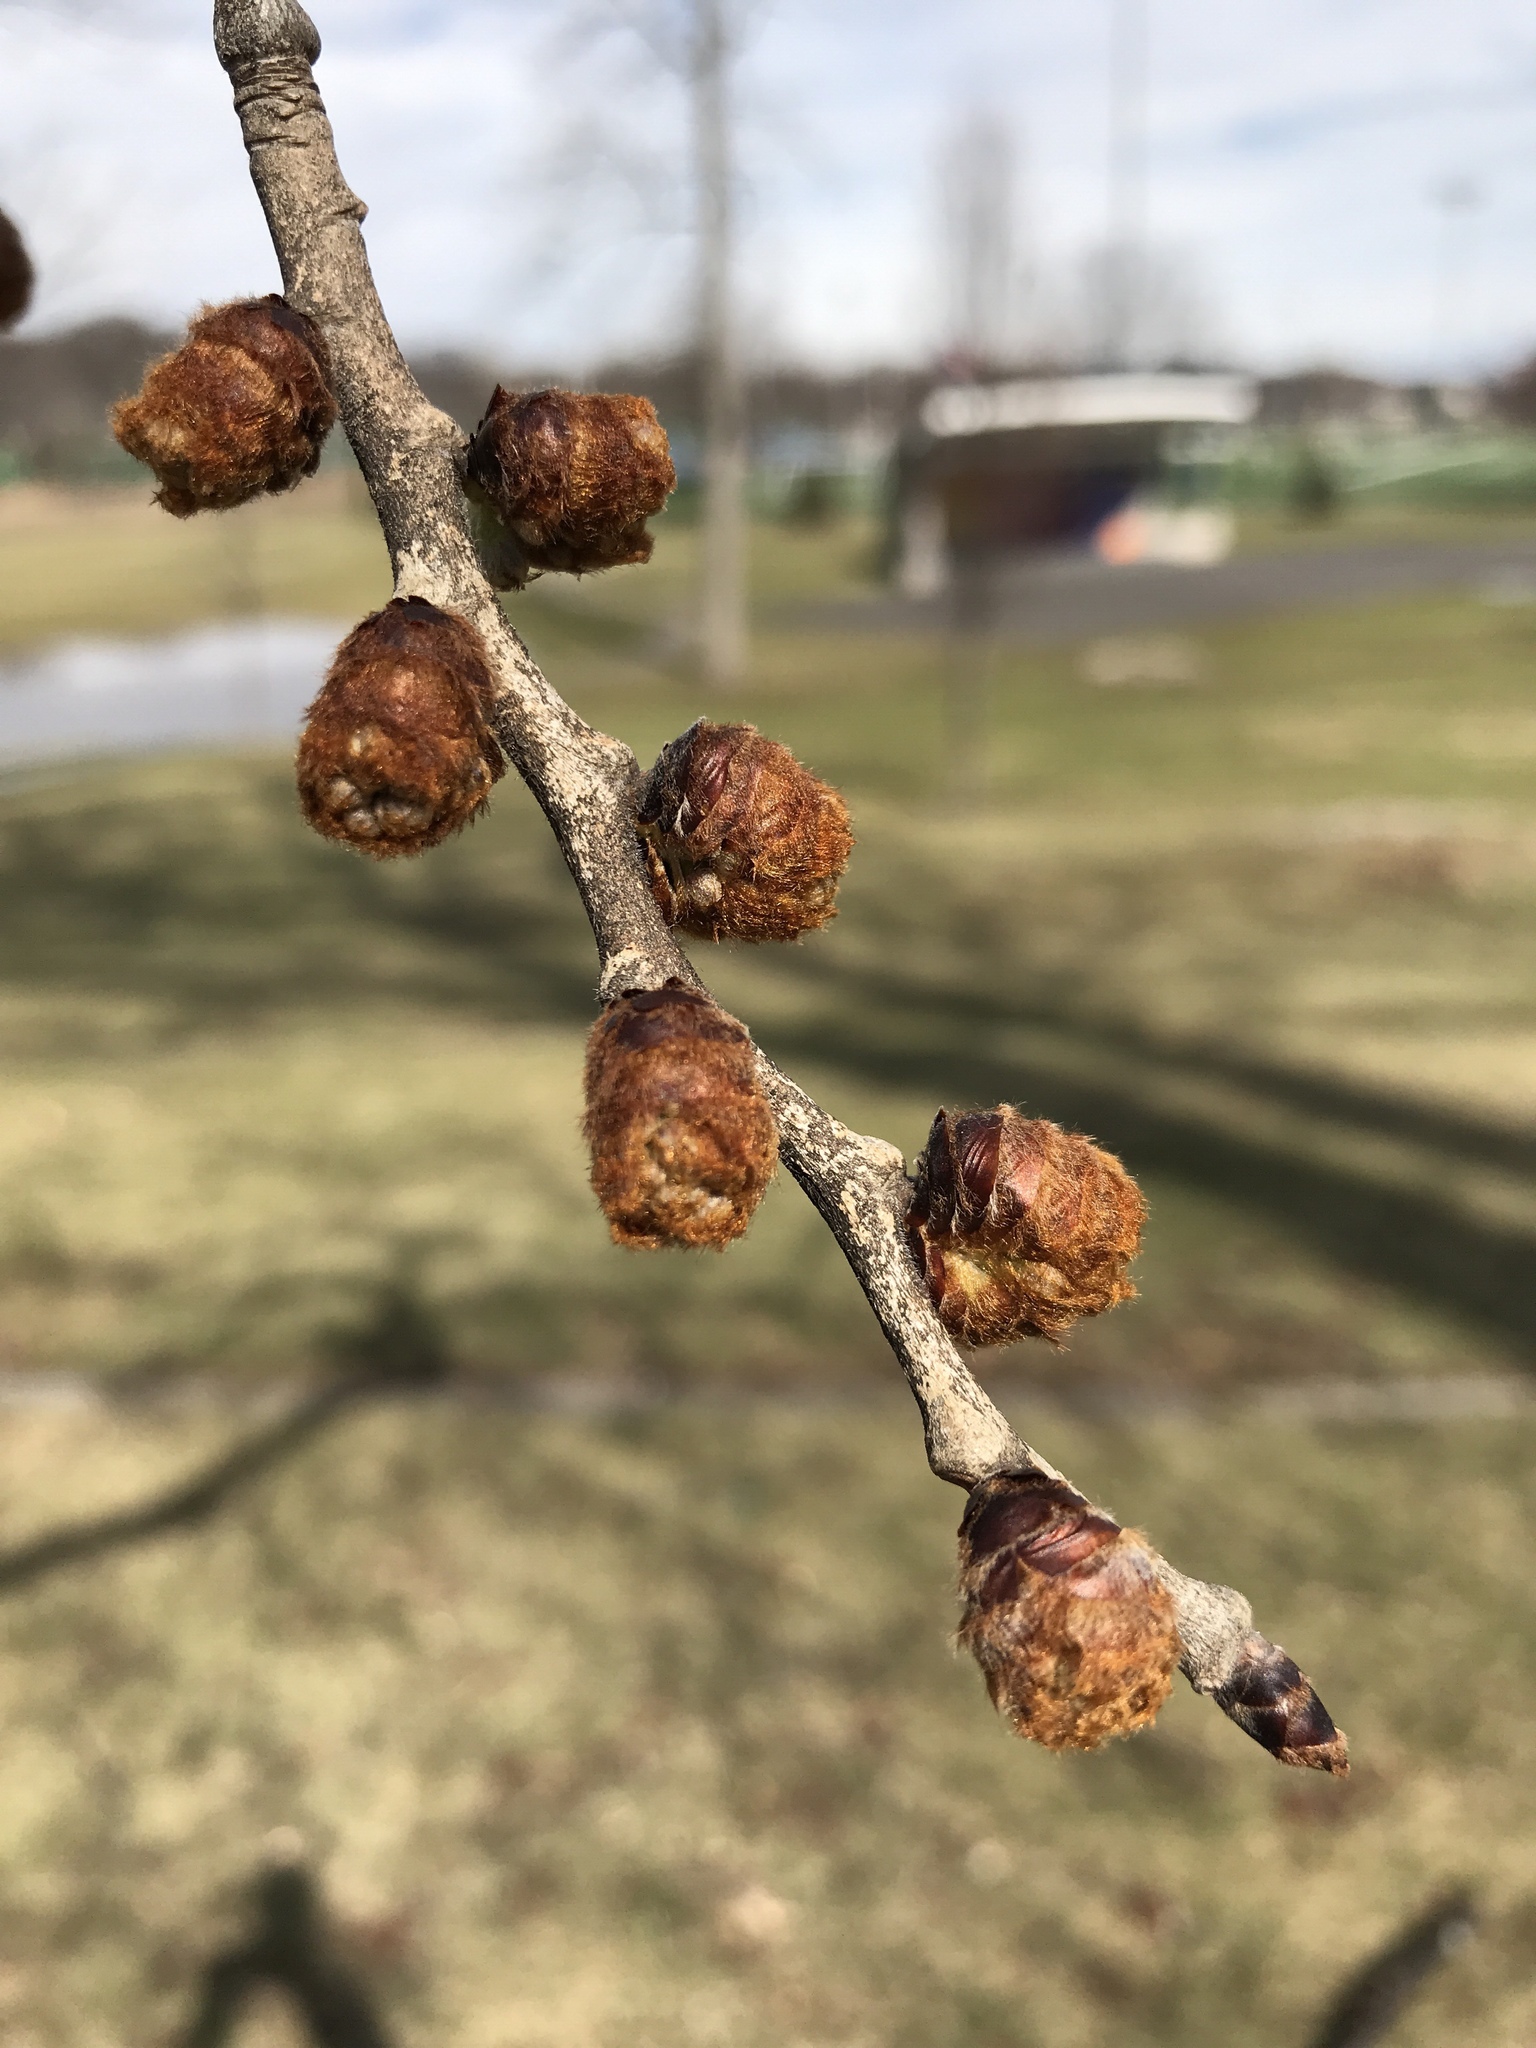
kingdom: Plantae
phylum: Tracheophyta
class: Magnoliopsida
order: Rosales
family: Ulmaceae
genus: Ulmus
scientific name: Ulmus rubra
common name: Slippery elm
